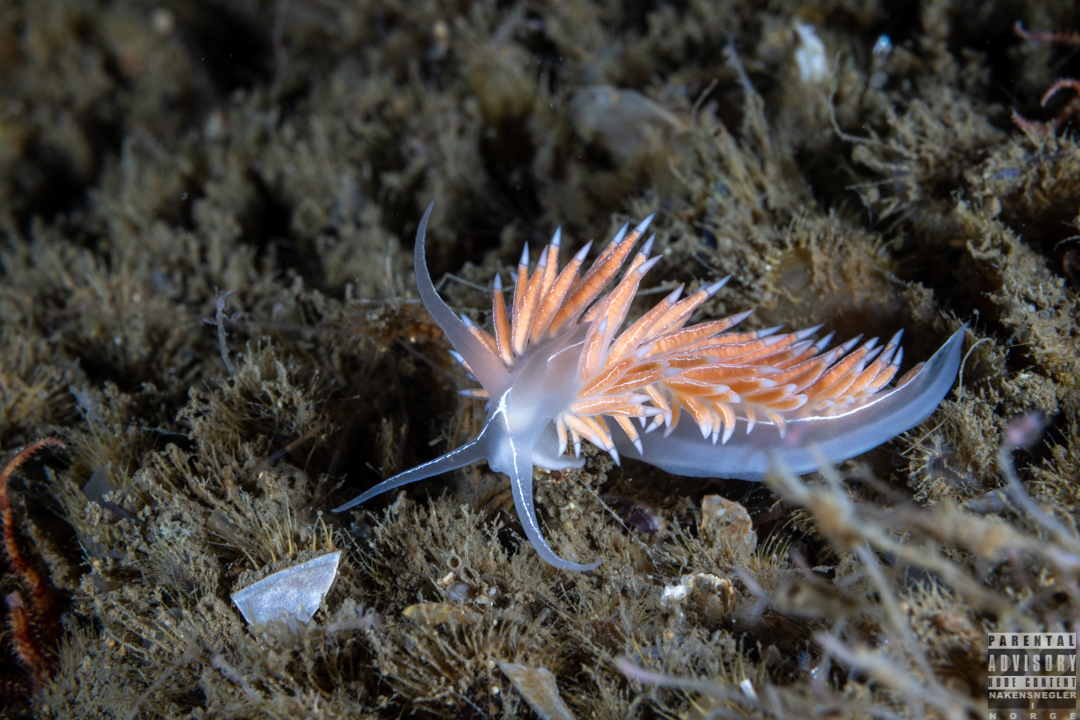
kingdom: Animalia
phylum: Mollusca
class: Gastropoda
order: Nudibranchia
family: Coryphellidae
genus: Coryphella
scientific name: Coryphella chriskaugei
